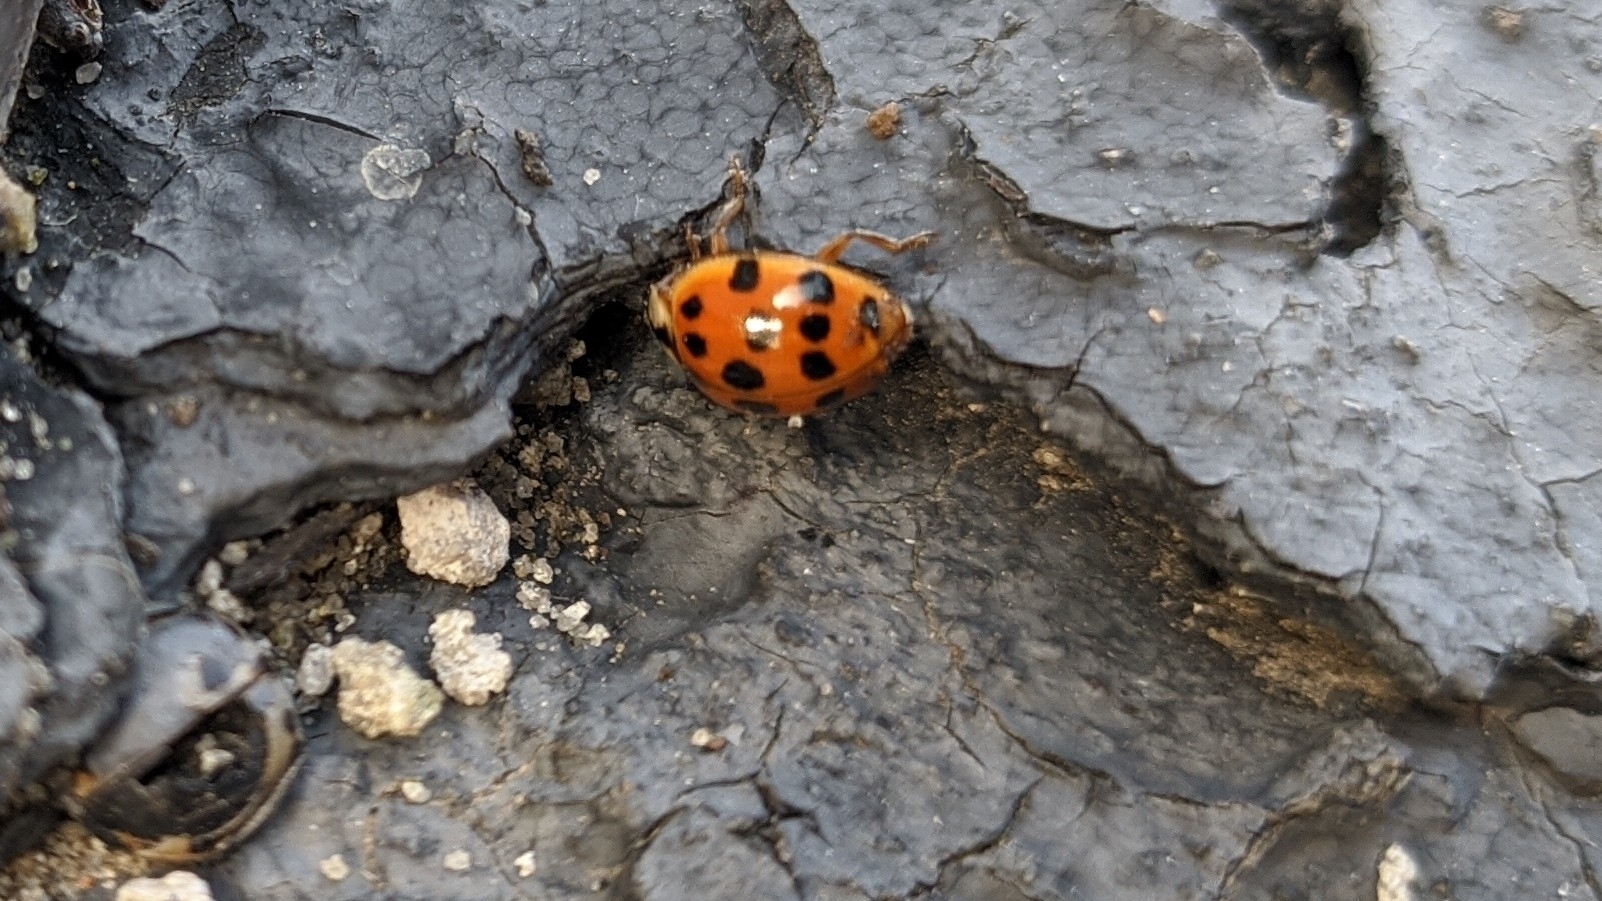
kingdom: Animalia
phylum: Arthropoda
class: Insecta
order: Coleoptera
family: Coccinellidae
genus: Harmonia
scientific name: Harmonia axyridis
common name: Harlequin ladybird
